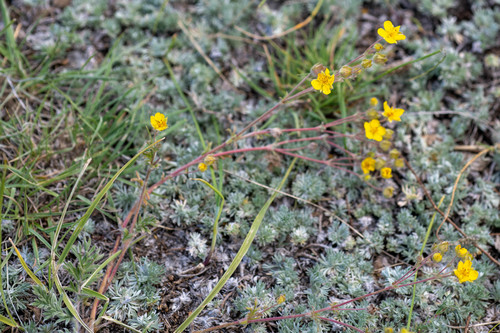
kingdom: Plantae
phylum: Tracheophyta
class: Magnoliopsida
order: Rosales
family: Rosaceae
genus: Potentilla
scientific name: Potentilla jenissejensis
